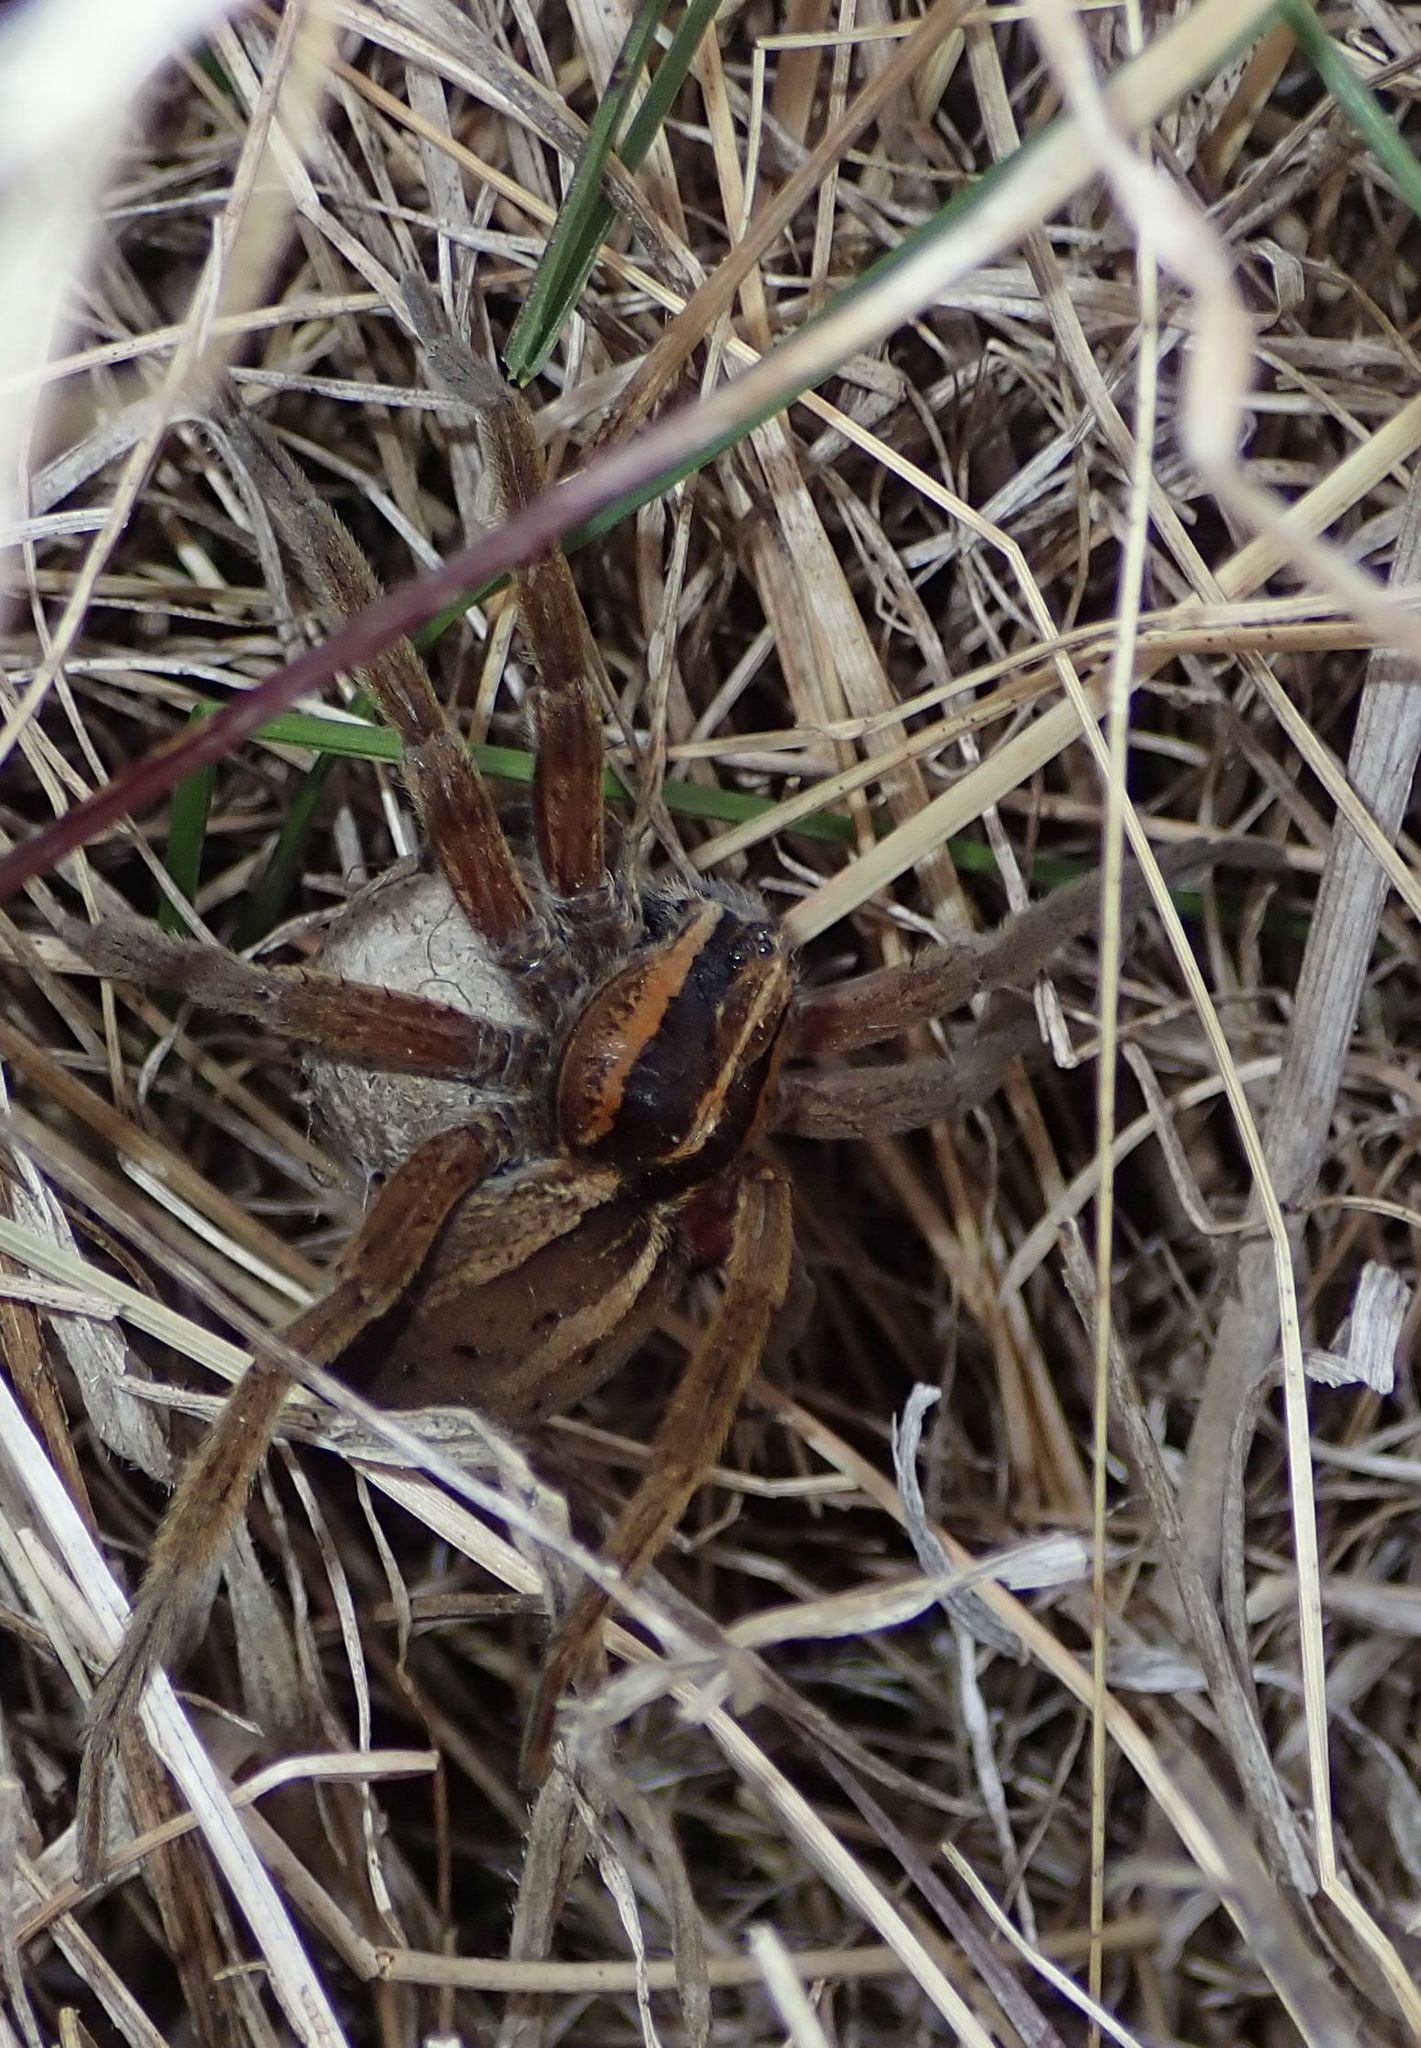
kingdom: Animalia
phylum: Arthropoda
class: Arachnida
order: Araneae
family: Pisauridae
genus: Dolomedes
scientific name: Dolomedes minor
